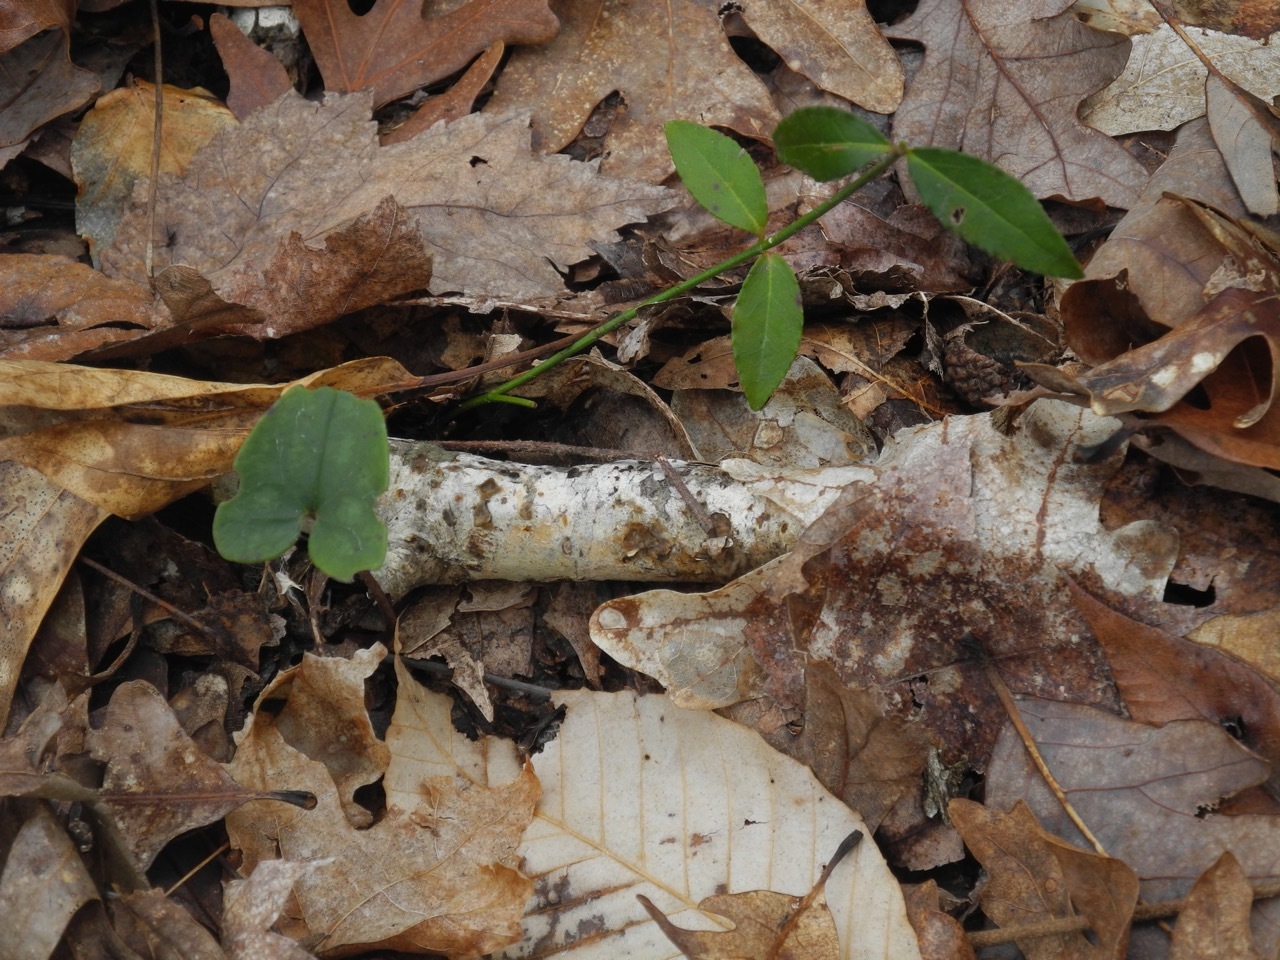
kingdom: Plantae
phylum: Tracheophyta
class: Magnoliopsida
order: Celastrales
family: Celastraceae
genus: Euonymus
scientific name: Euonymus americanus
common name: Bursting-heart
